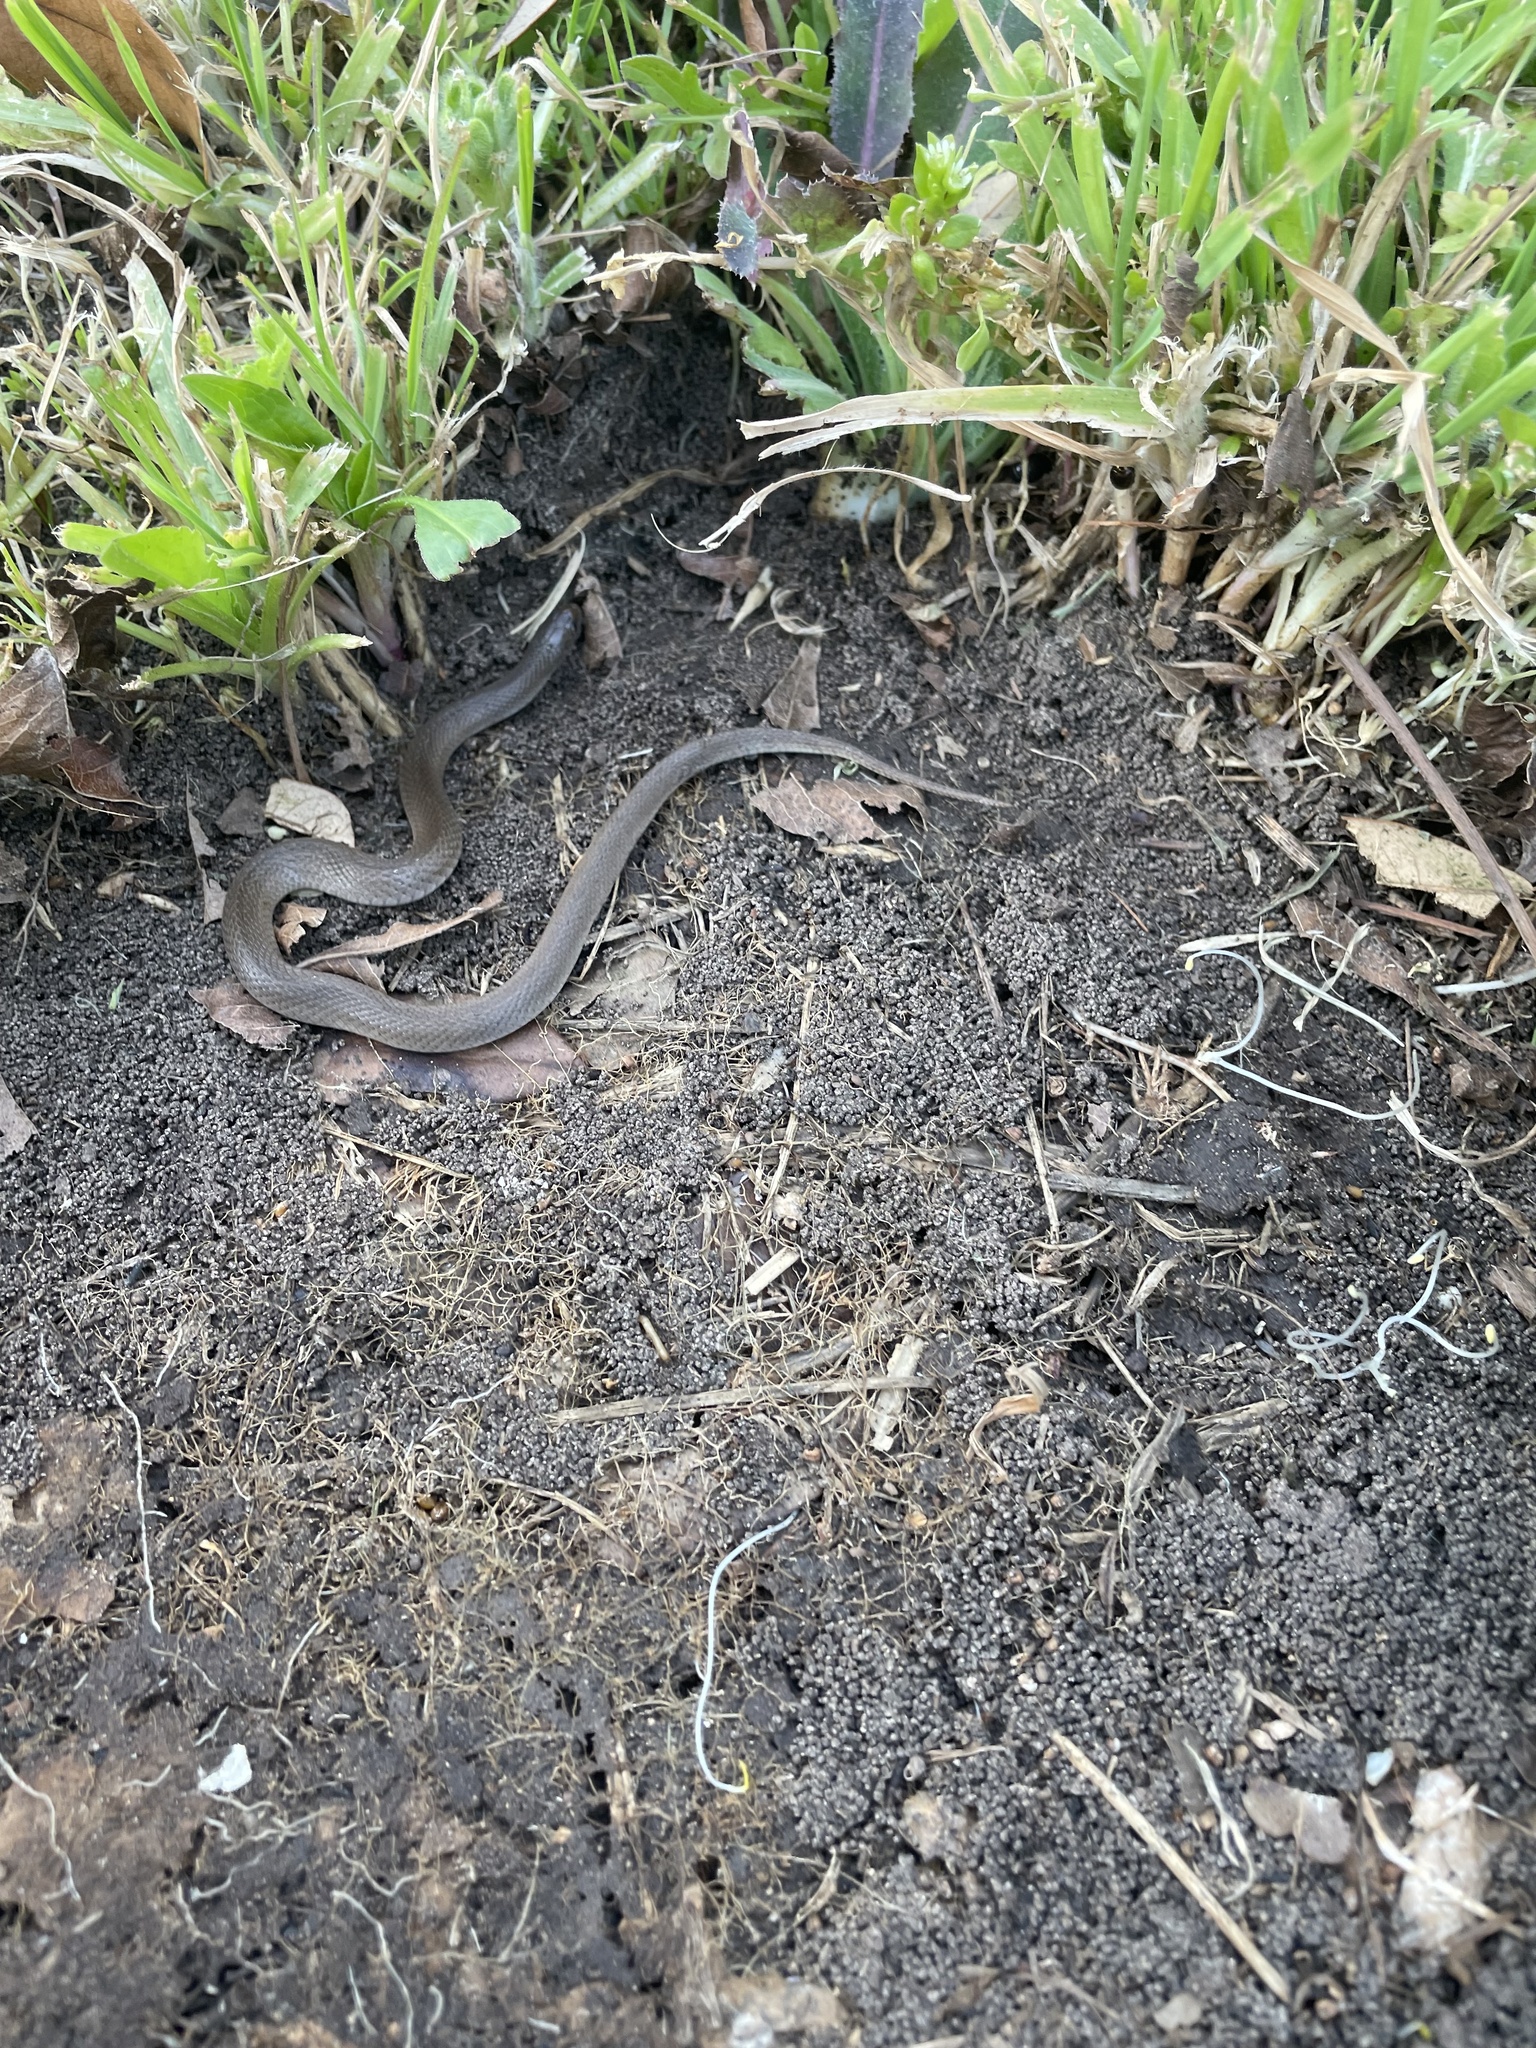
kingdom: Animalia
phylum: Chordata
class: Squamata
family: Colubridae
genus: Haldea
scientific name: Haldea striatula
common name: Rough earth snake
